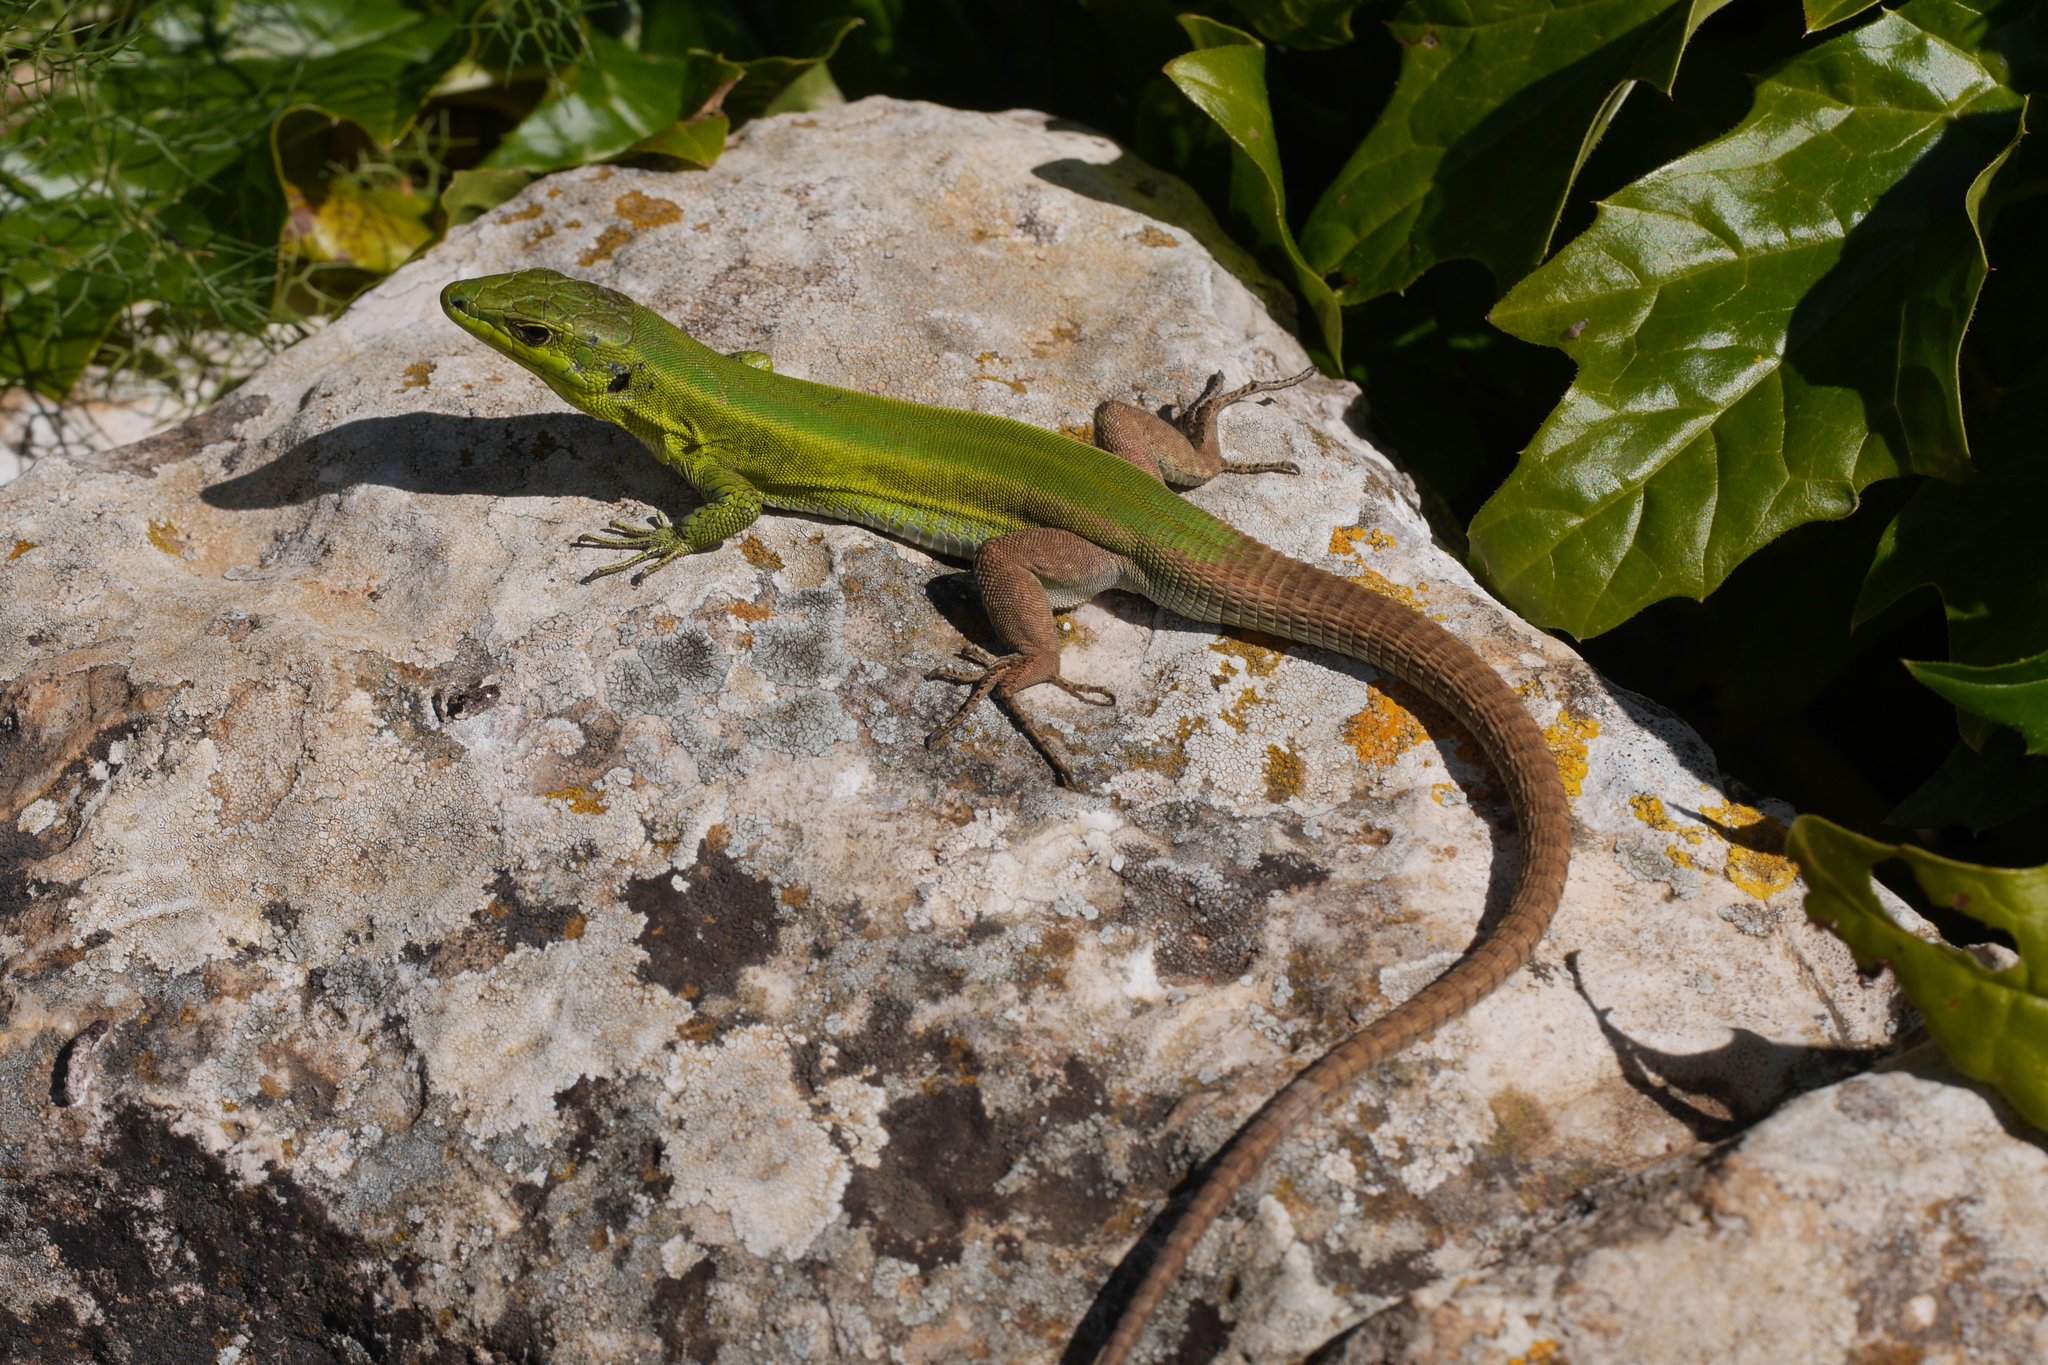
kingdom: Animalia
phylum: Chordata
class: Squamata
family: Lacertidae
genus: Podarcis
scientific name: Podarcis waglerianus
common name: Sicilian wall lizard
